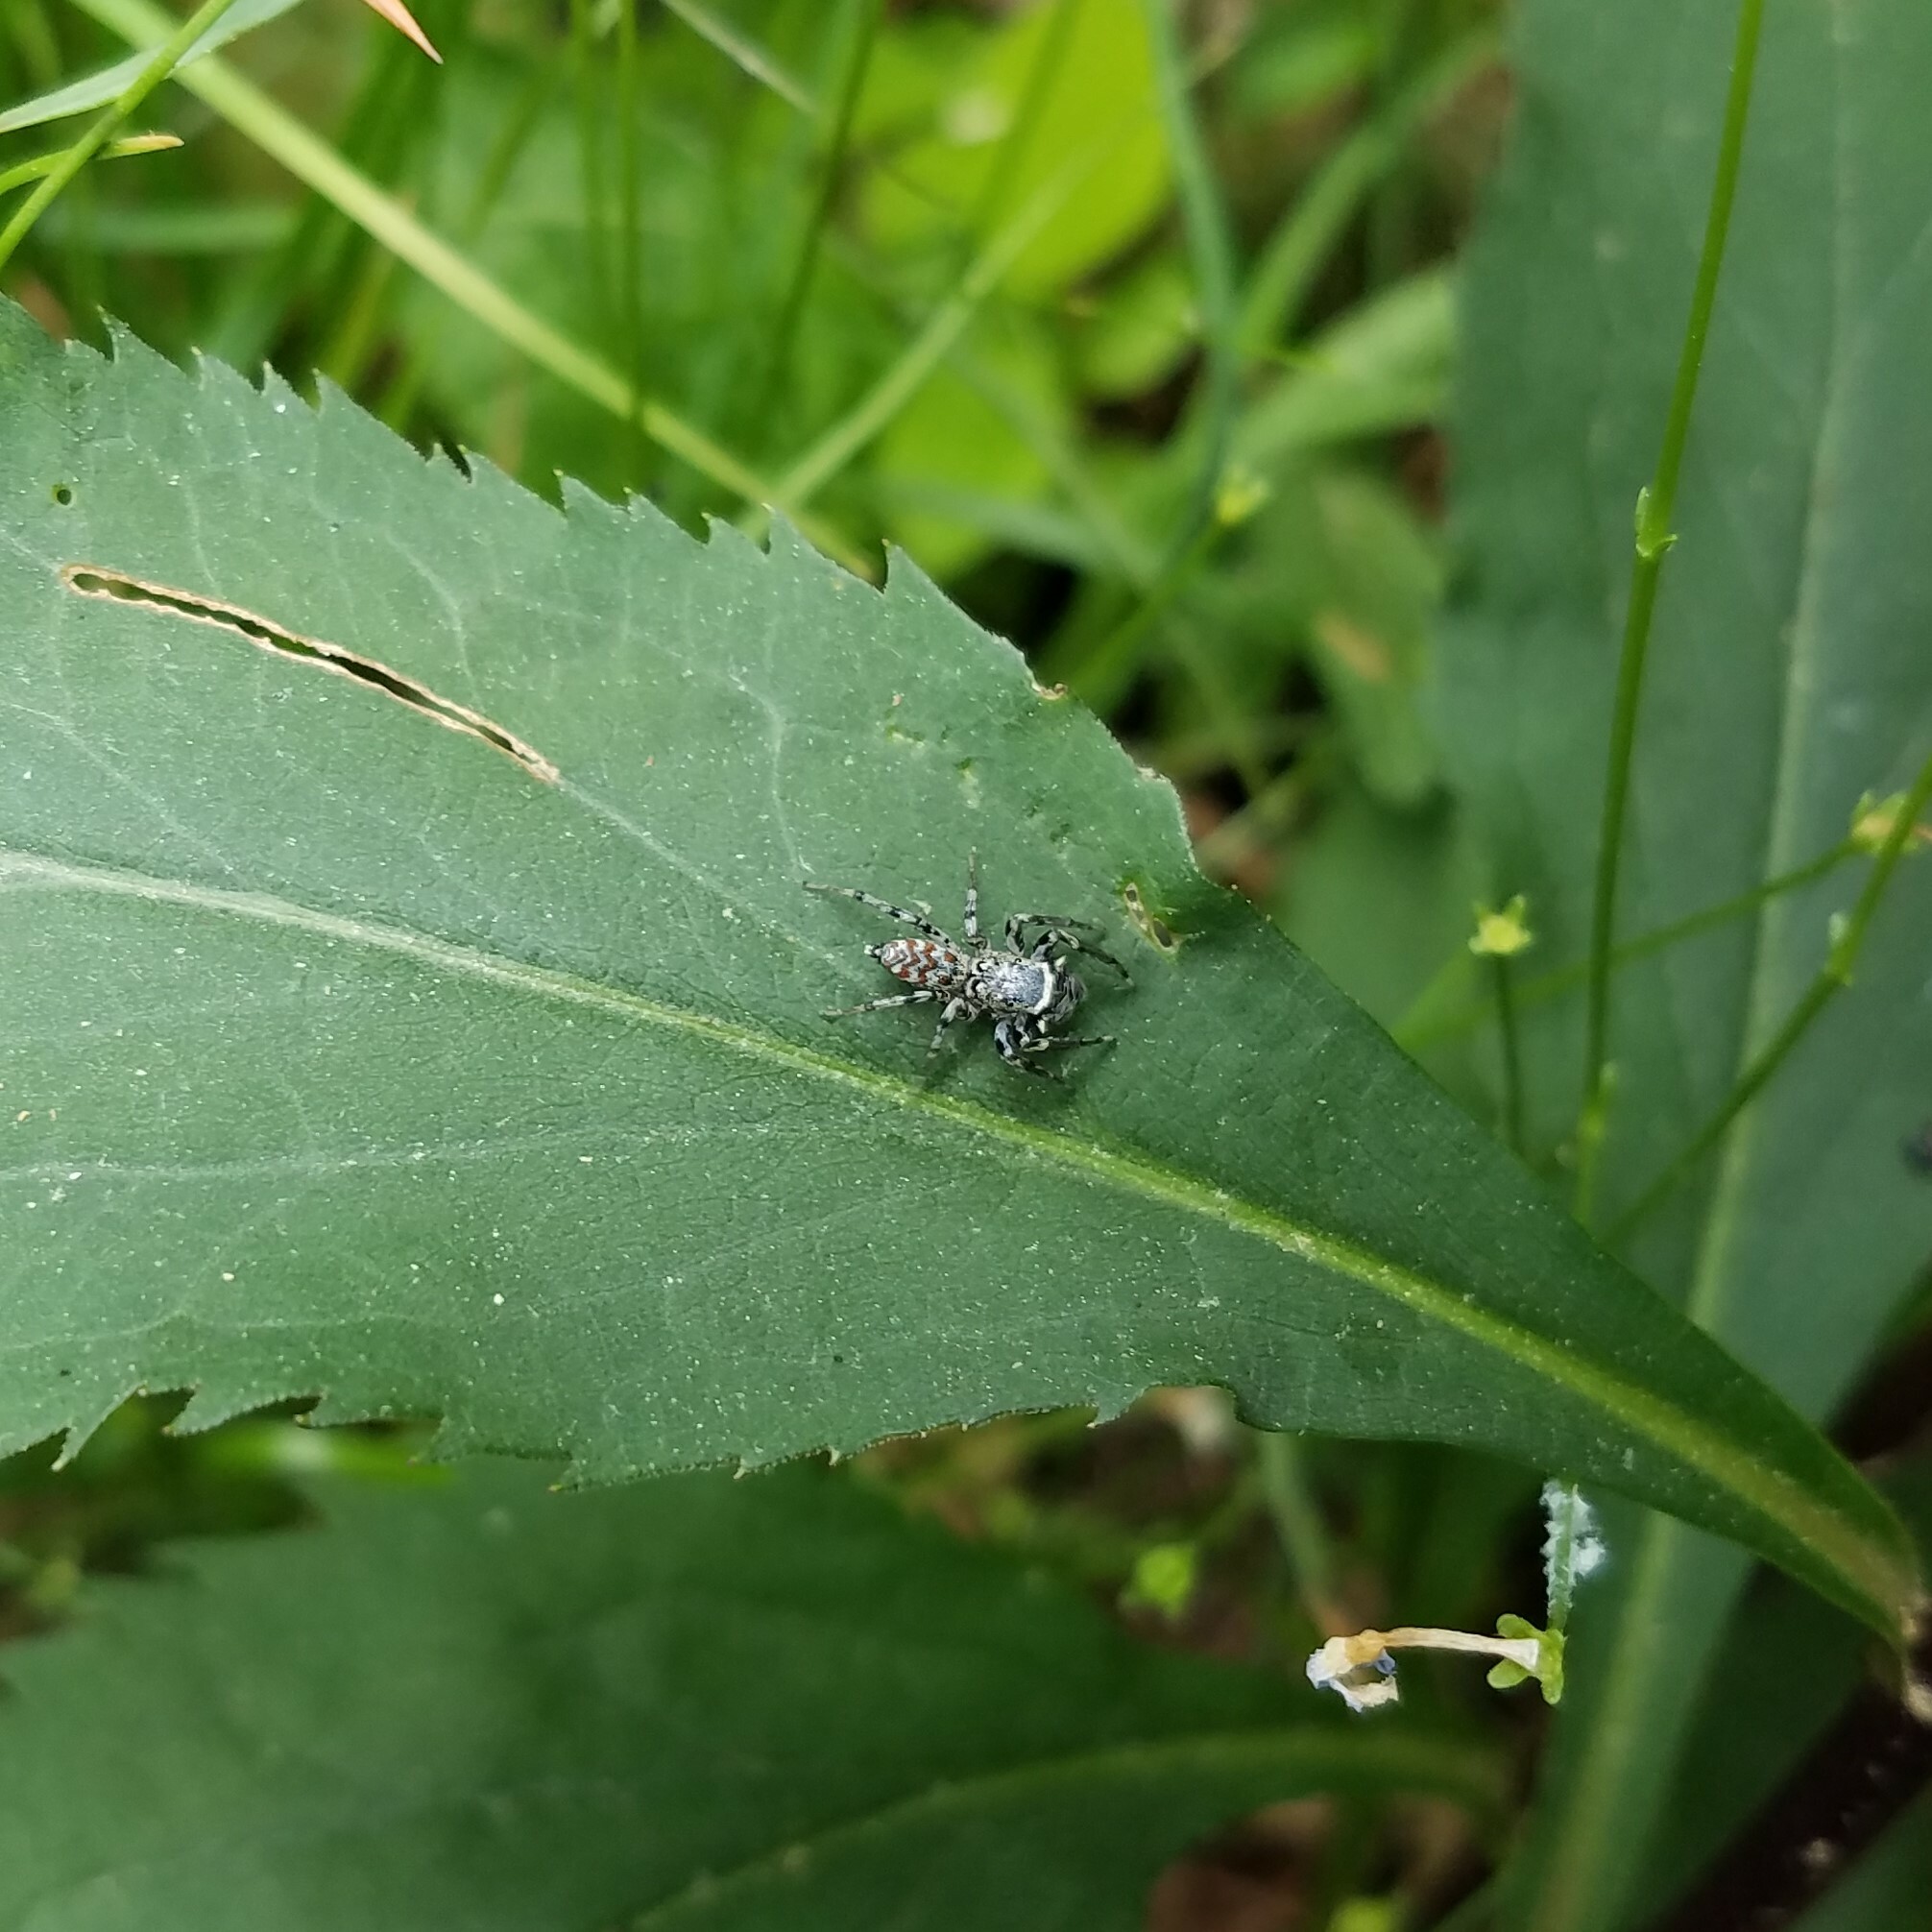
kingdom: Animalia
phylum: Arthropoda
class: Arachnida
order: Araneae
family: Salticidae
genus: Maevia
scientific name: Maevia expansa
